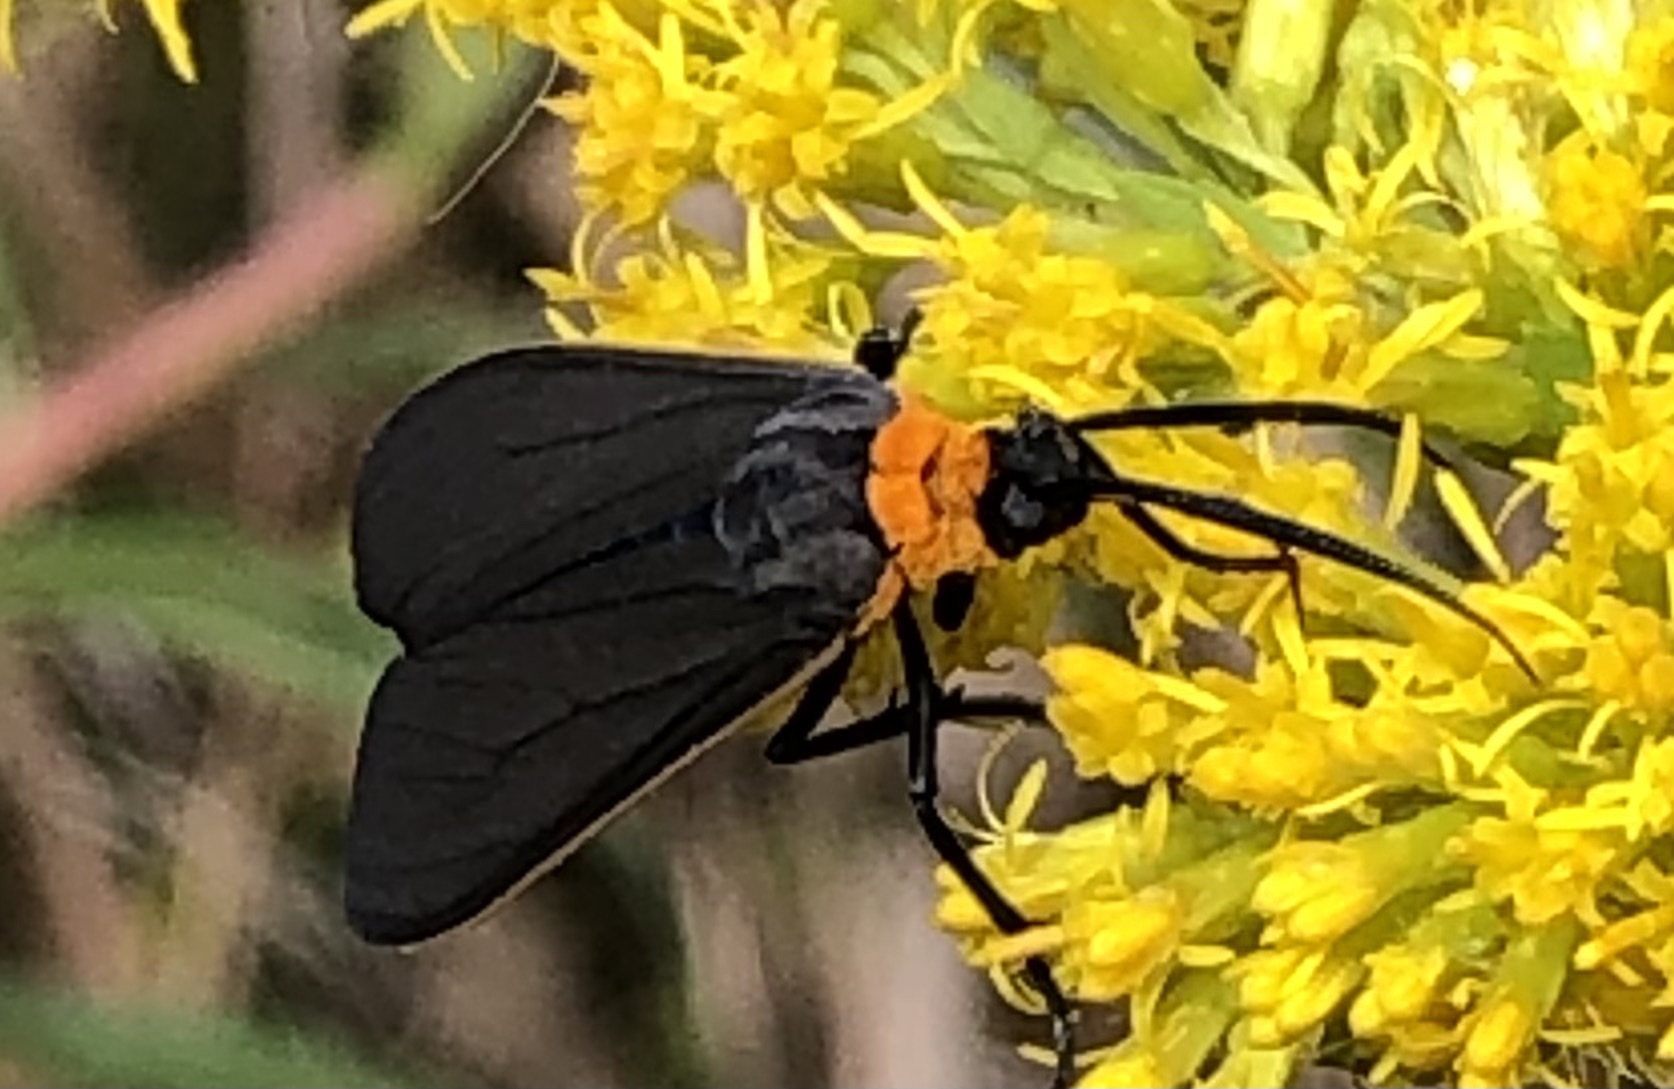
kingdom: Animalia
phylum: Arthropoda
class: Insecta
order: Lepidoptera
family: Erebidae
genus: Cisseps
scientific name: Cisseps fulvicollis
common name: Yellow-collared scape moth
